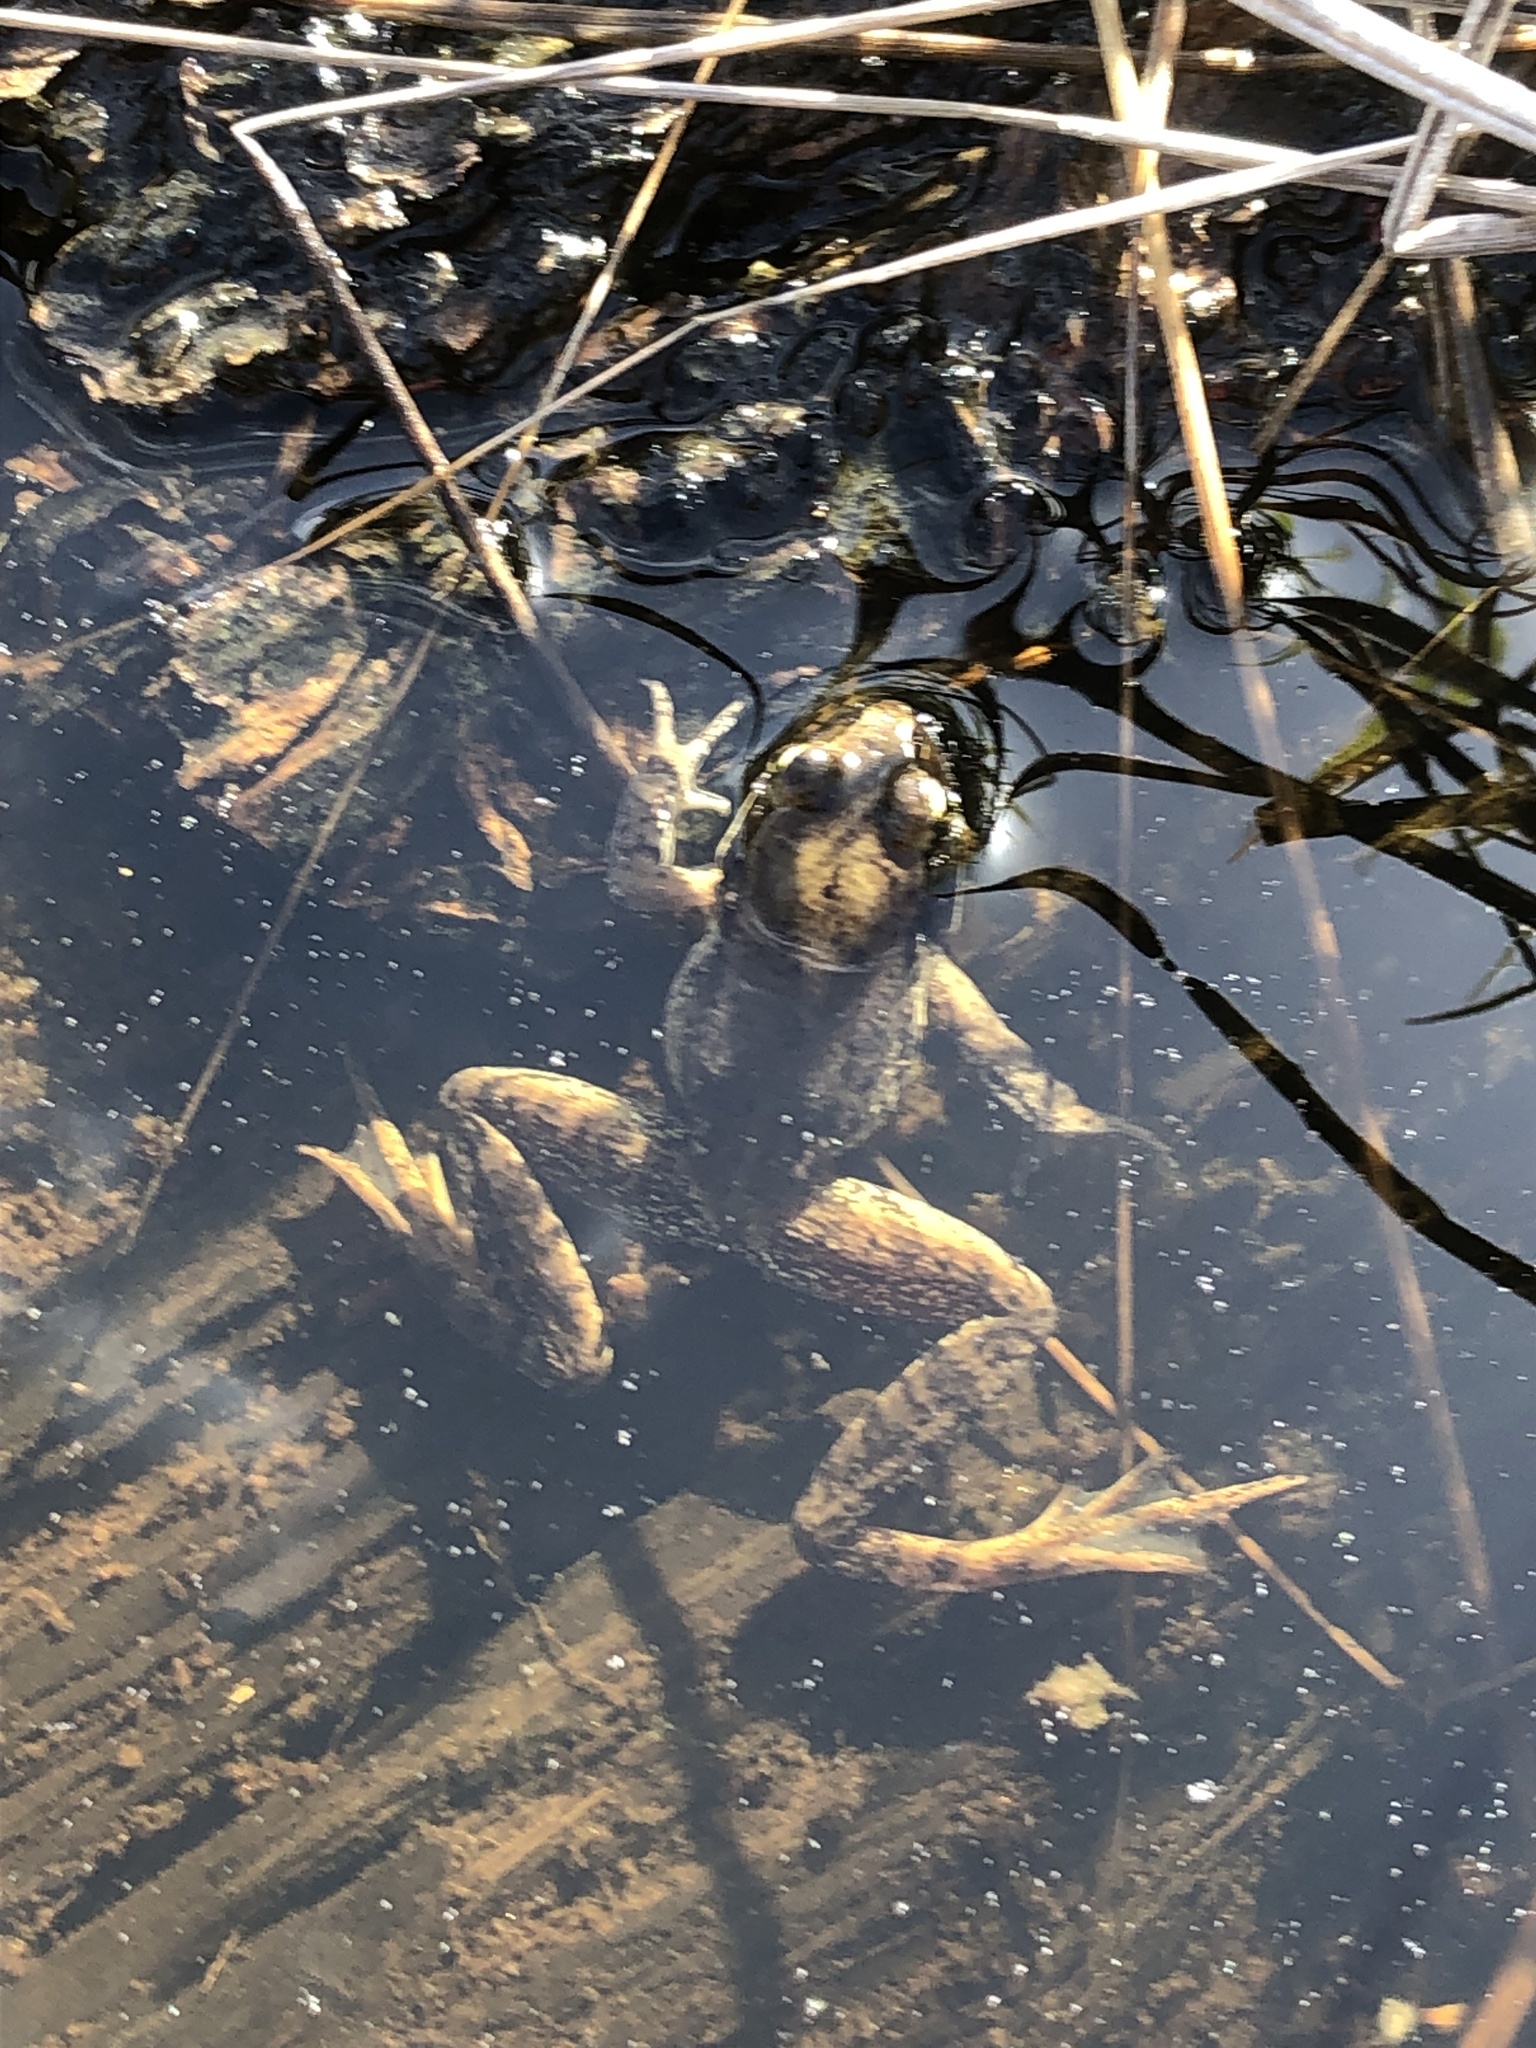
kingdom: Animalia
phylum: Chordata
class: Amphibia
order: Anura
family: Ranidae
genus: Rana
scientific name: Rana aurora
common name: Red-legged frog
